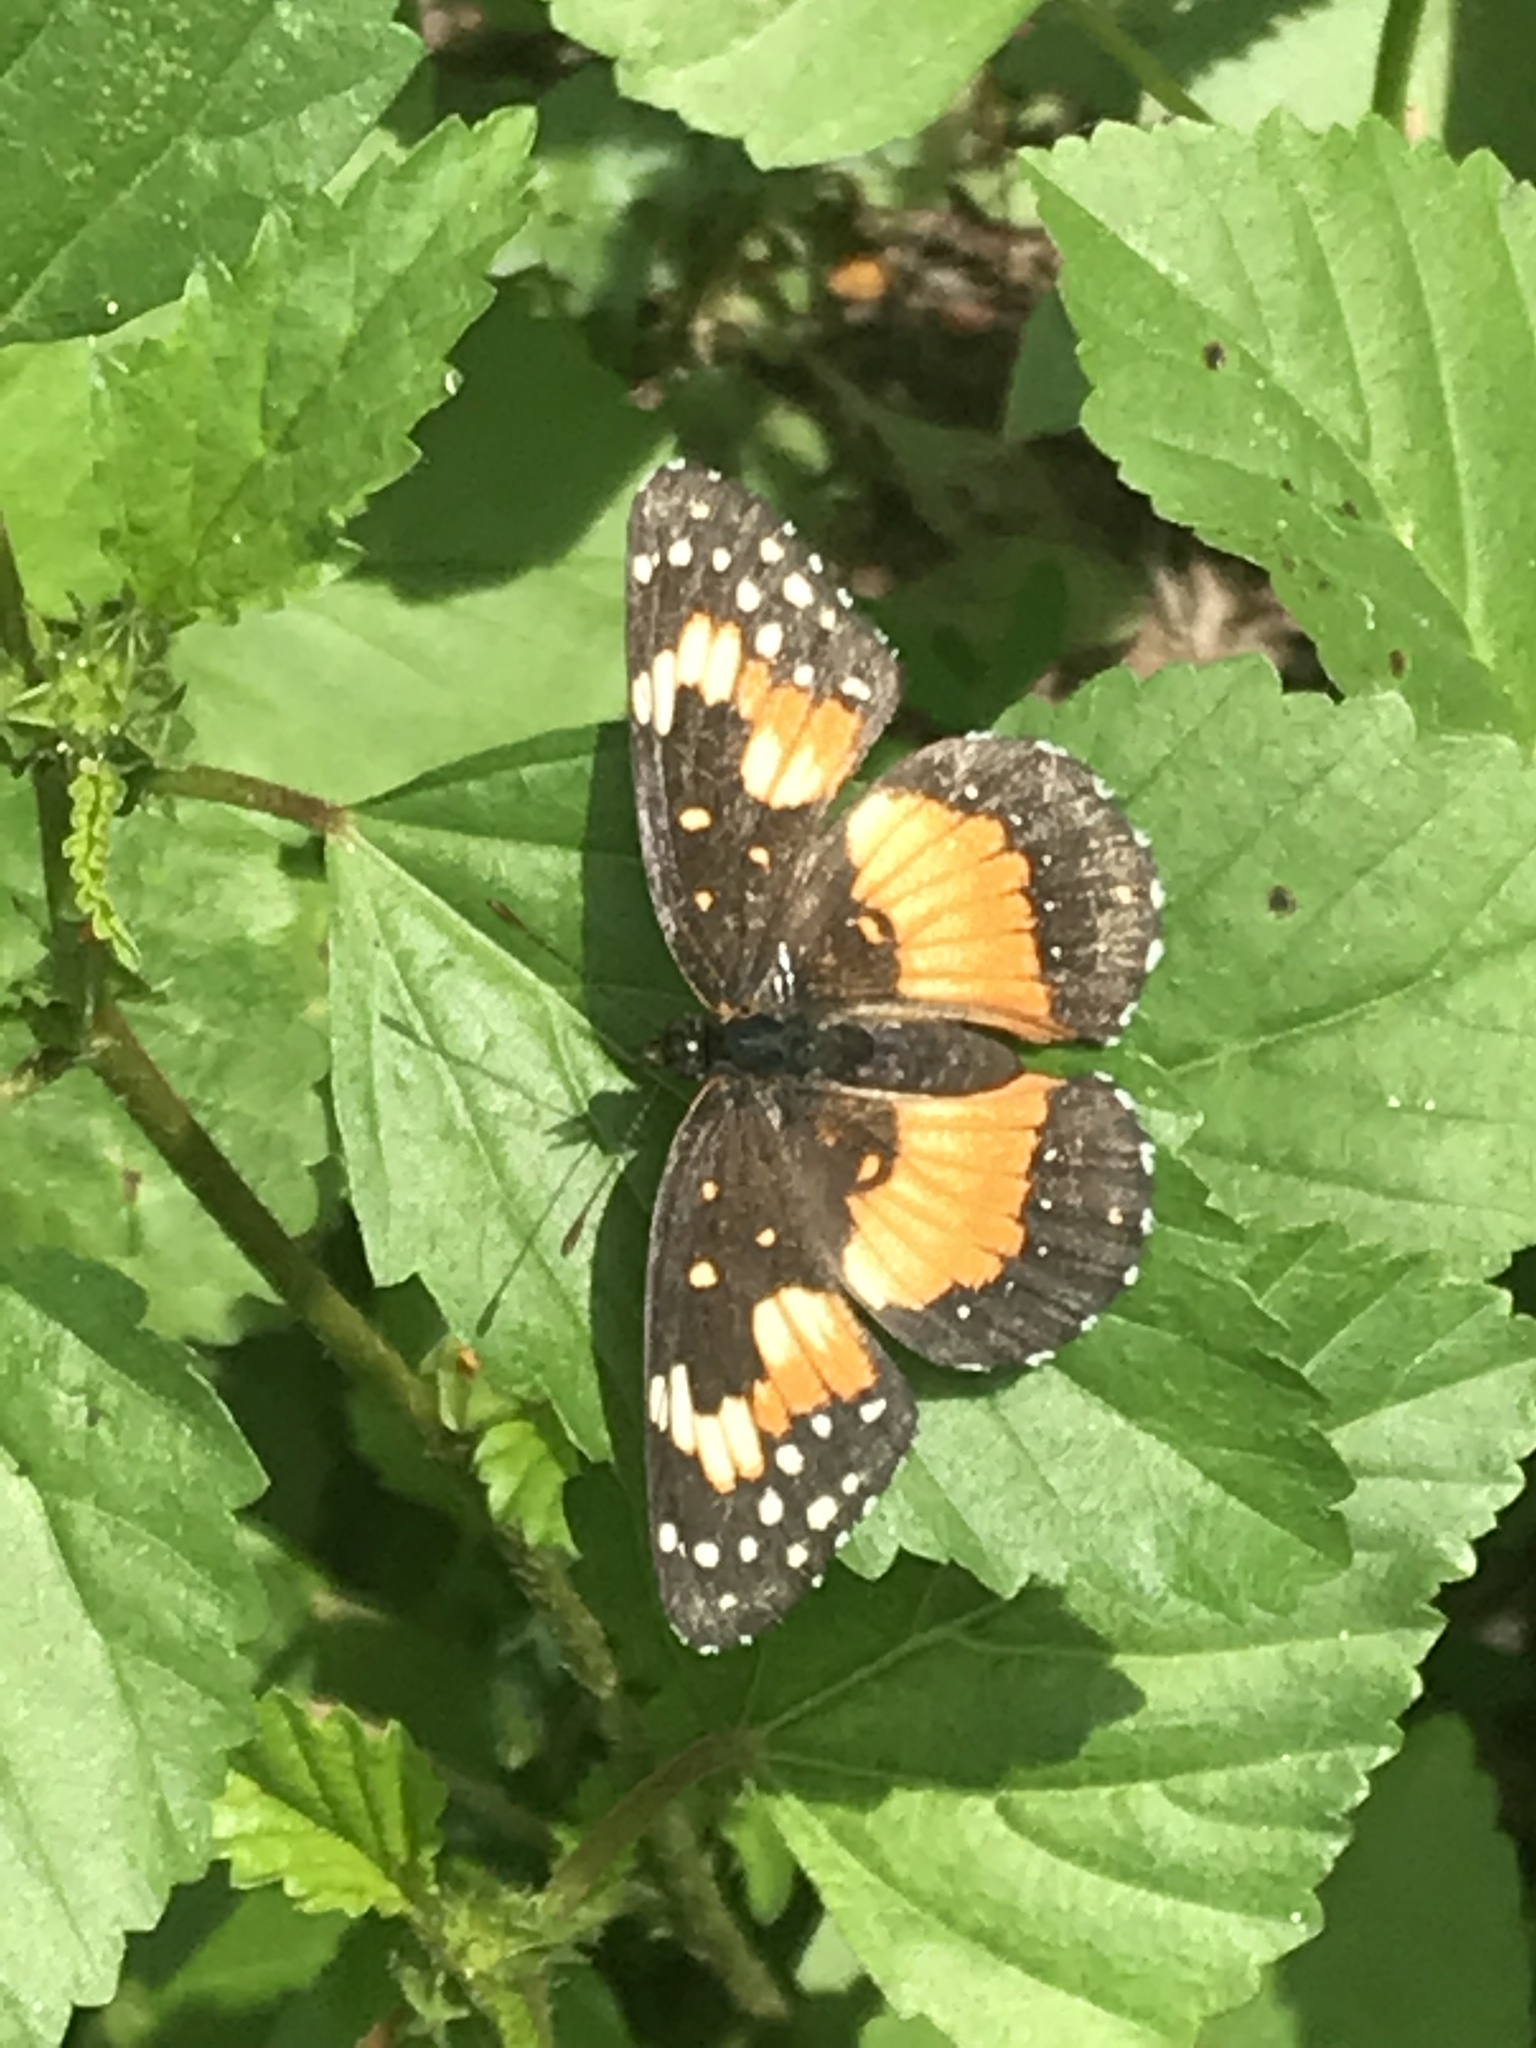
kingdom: Animalia
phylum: Arthropoda
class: Insecta
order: Lepidoptera
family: Nymphalidae
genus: Chlosyne
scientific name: Chlosyne lacinia
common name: Bordered patch
